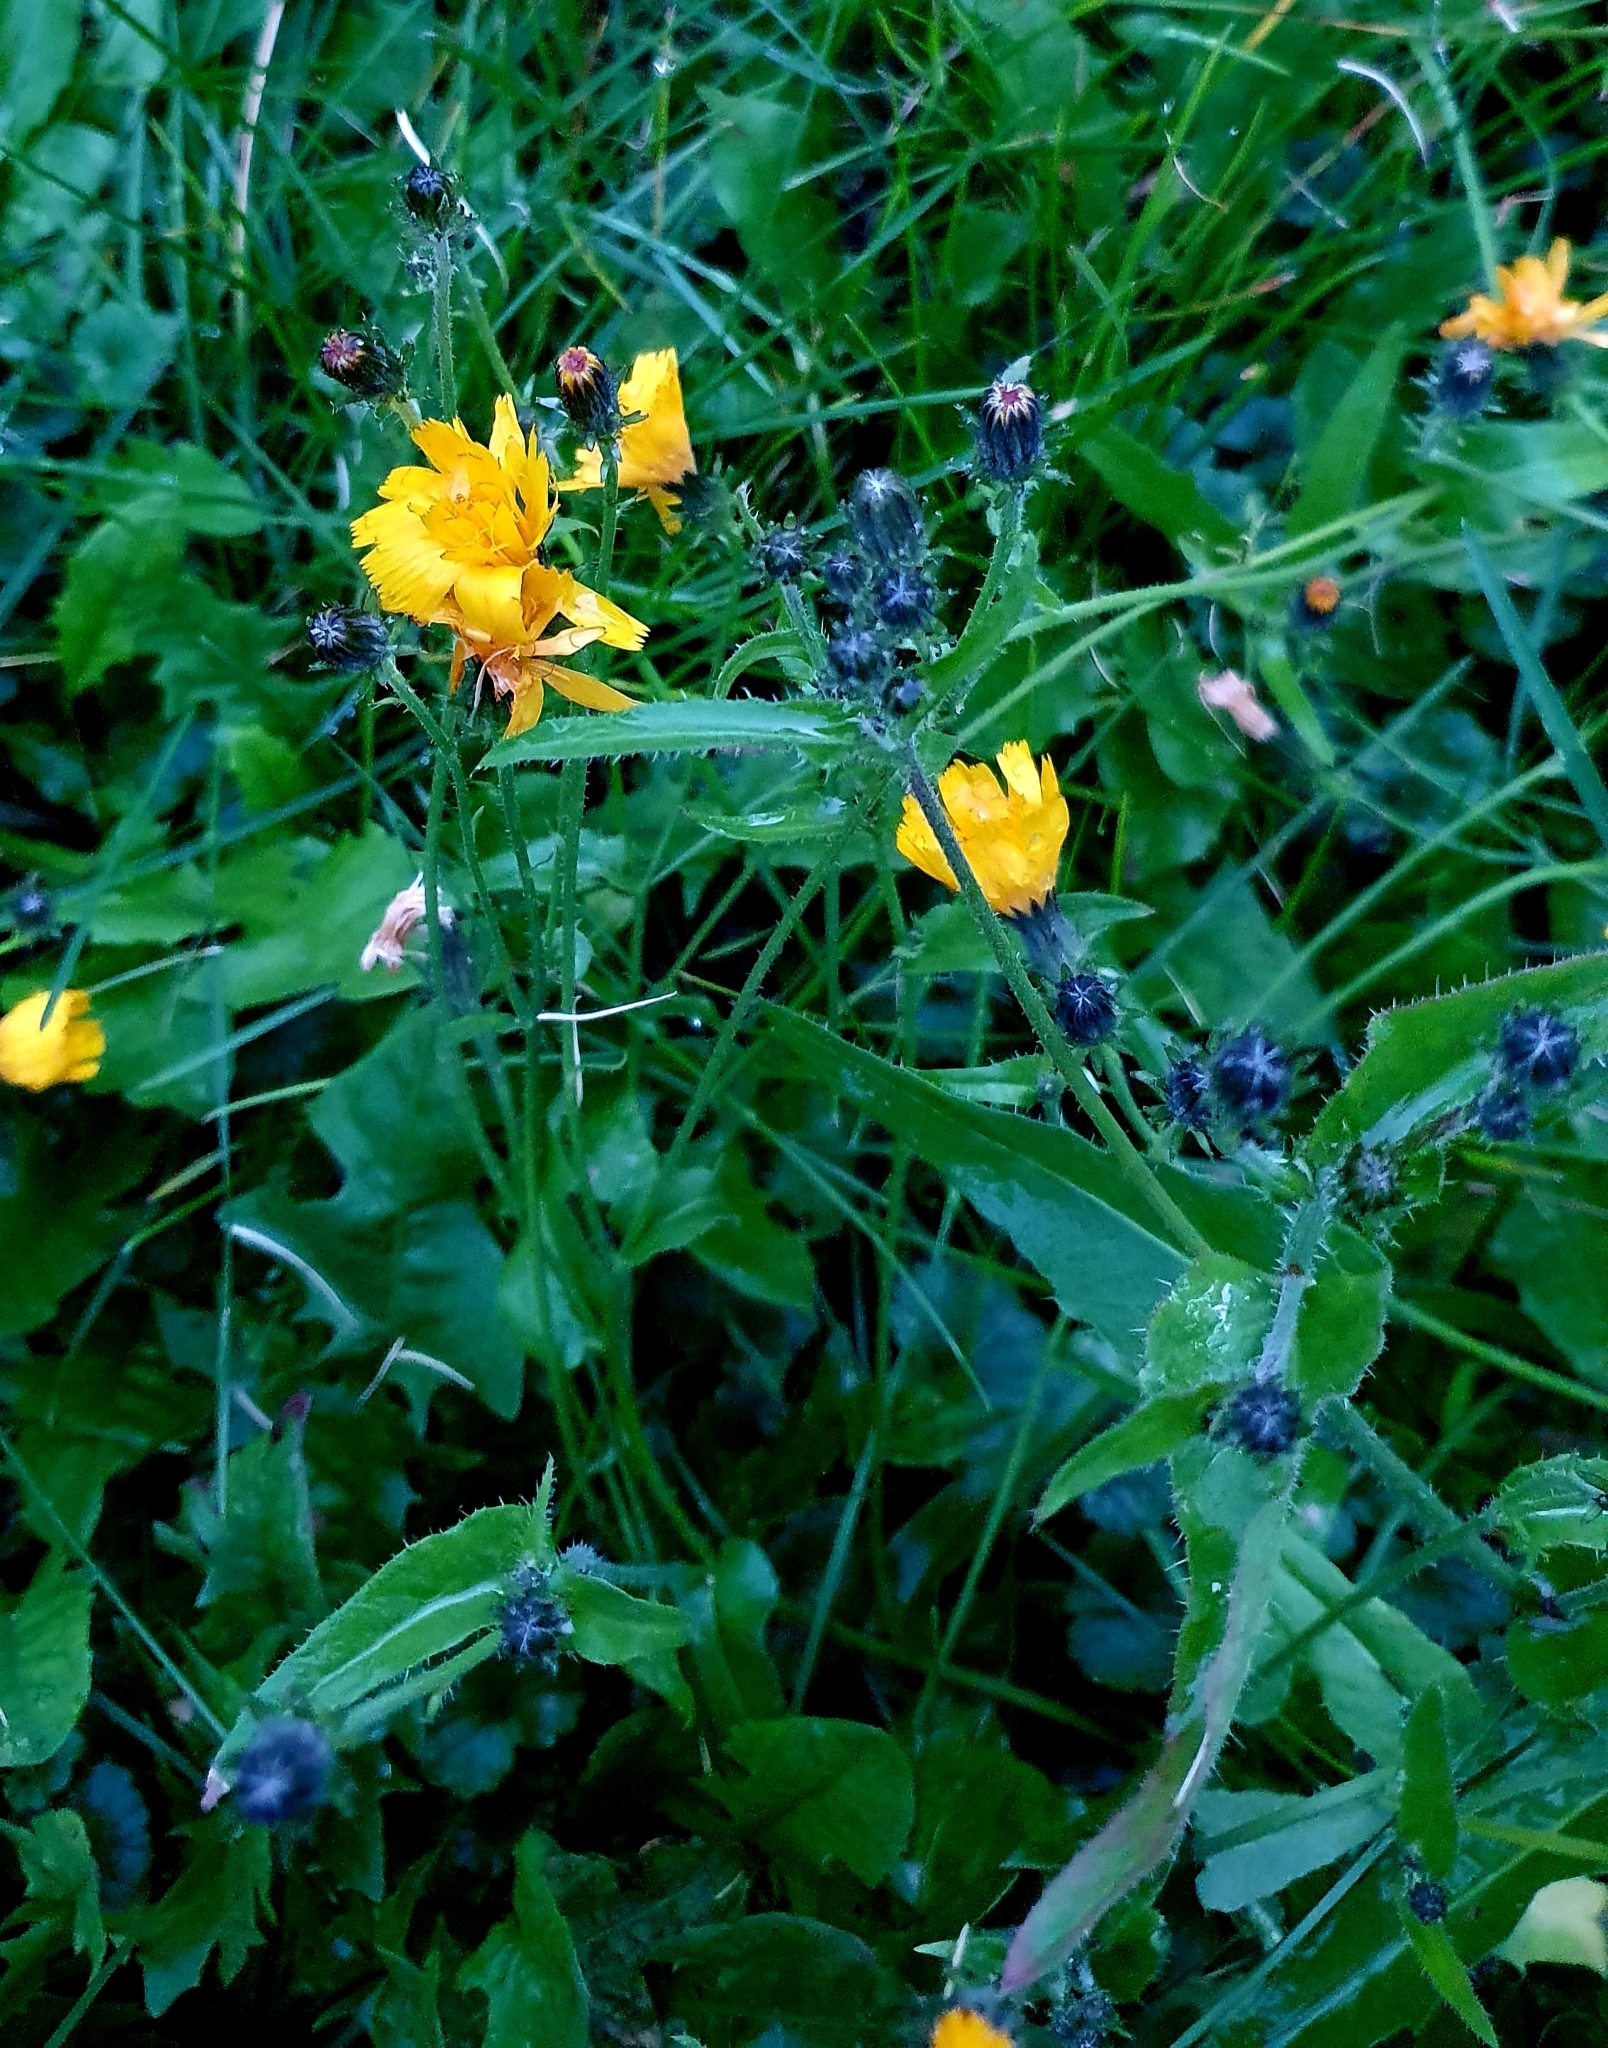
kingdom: Plantae
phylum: Tracheophyta
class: Magnoliopsida
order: Asterales
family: Asteraceae
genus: Picris
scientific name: Picris hieracioides
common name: Hawkweed oxtongue
